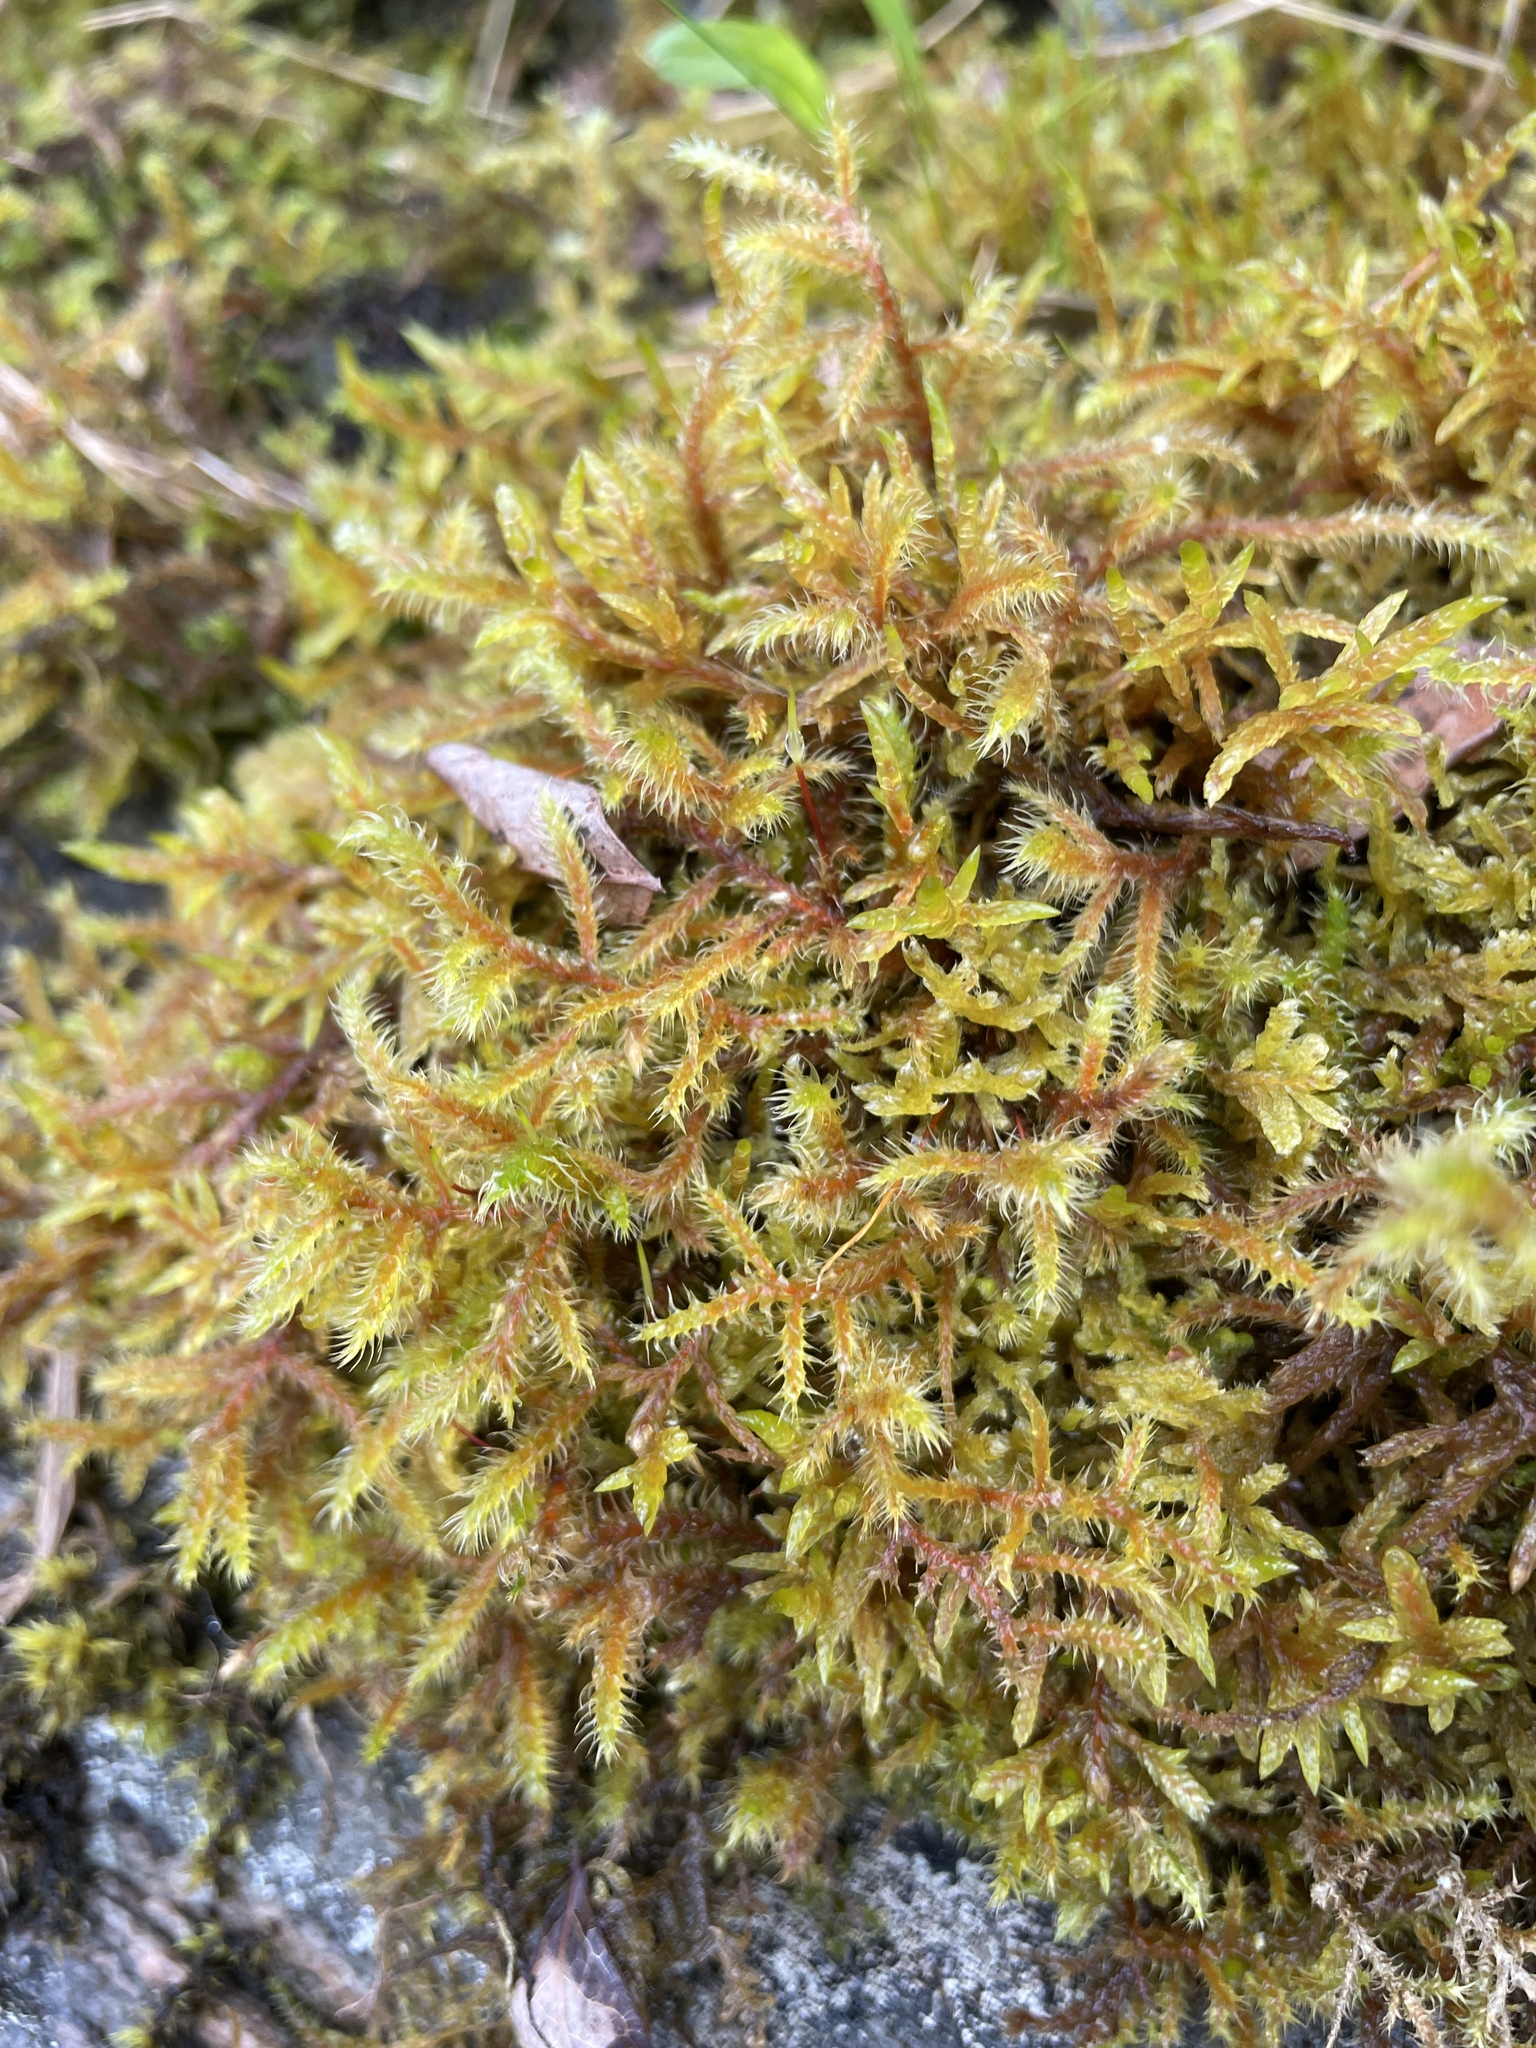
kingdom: Plantae
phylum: Bryophyta
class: Bryopsida
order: Hypnales
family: Hylocomiaceae
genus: Rhytidiadelphus
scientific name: Rhytidiadelphus loreus
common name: Lanky moss
